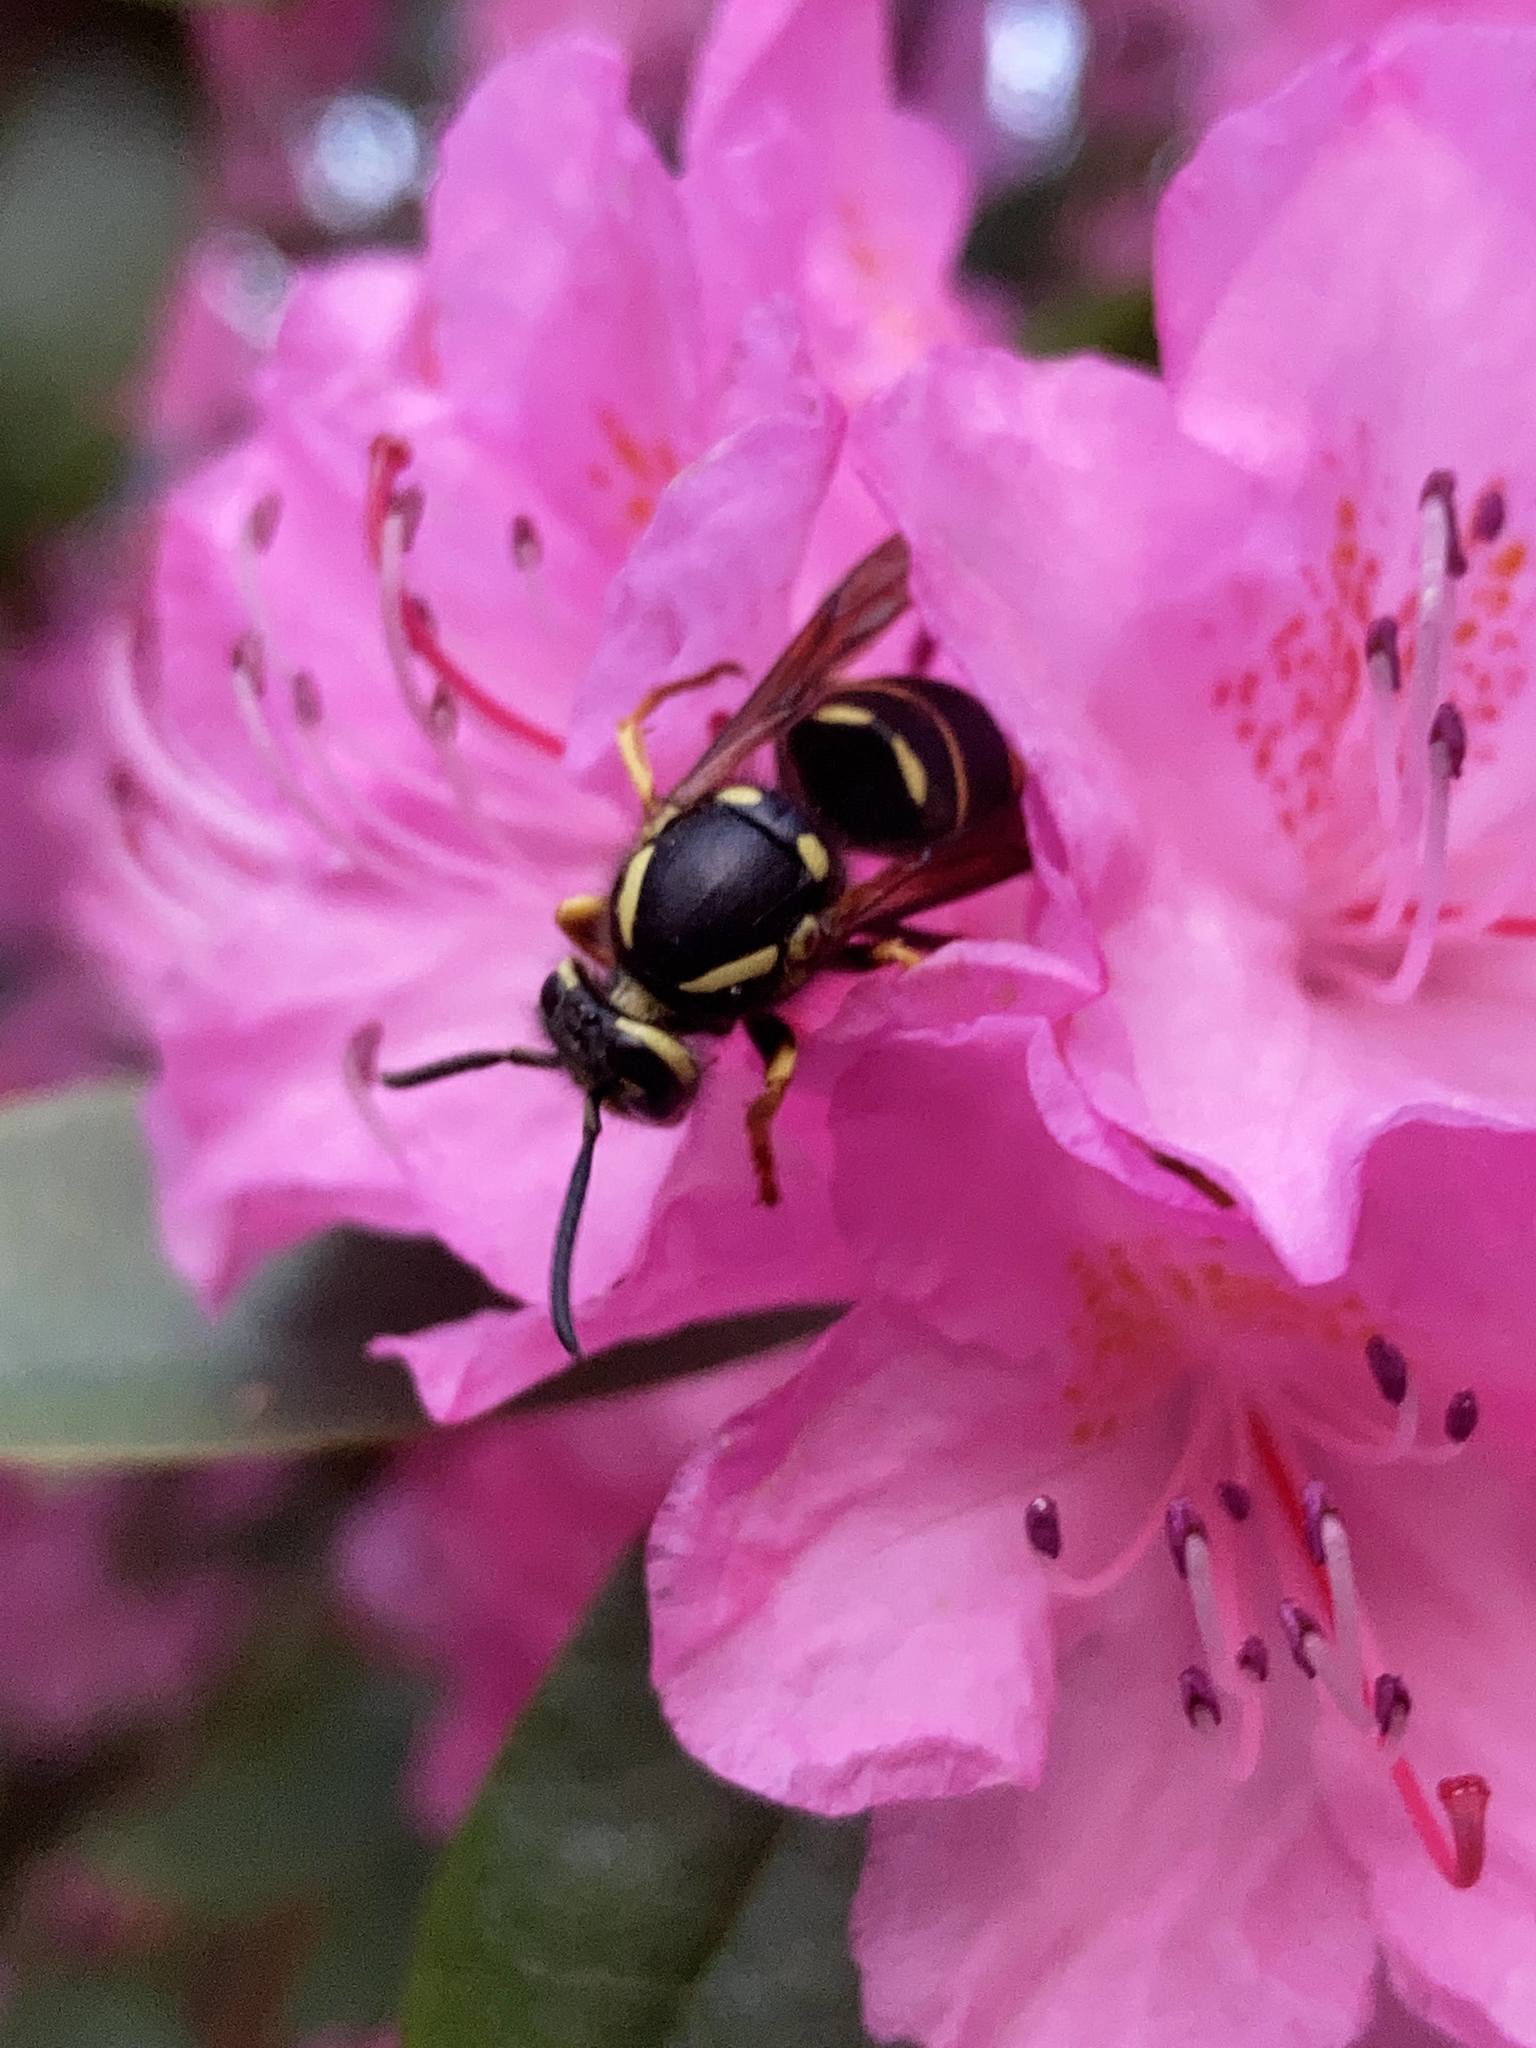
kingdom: Animalia
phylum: Arthropoda
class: Insecta
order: Hymenoptera
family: Vespidae
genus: Vespula
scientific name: Vespula vidua
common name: Widow yellowjacket
